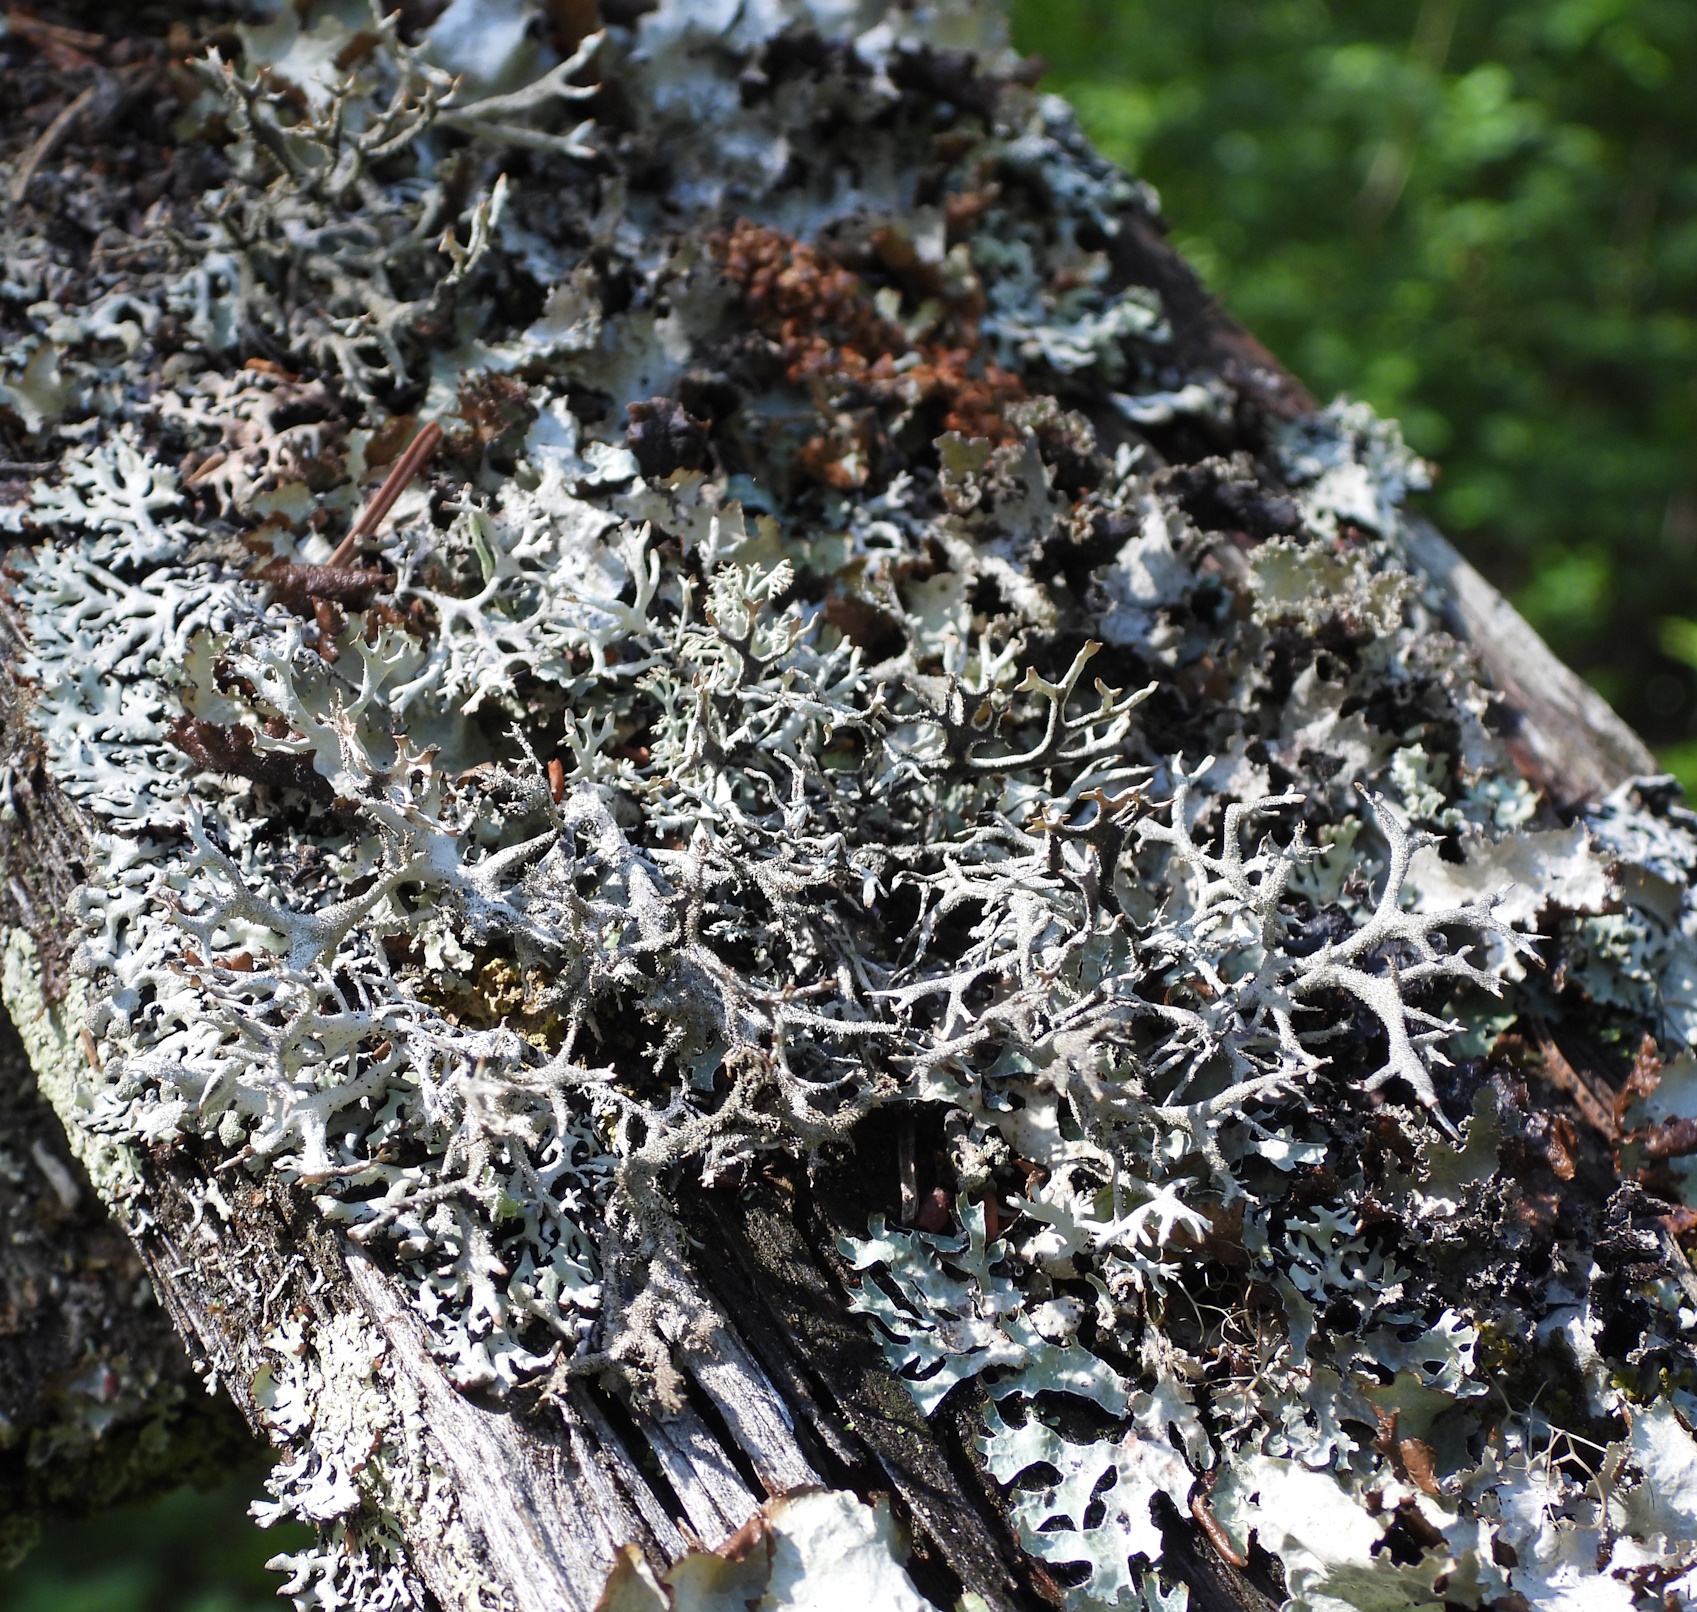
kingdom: Fungi
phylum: Ascomycota
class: Lecanoromycetes
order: Lecanorales
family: Parmeliaceae
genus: Pseudevernia
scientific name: Pseudevernia furfuracea
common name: Tree moss
